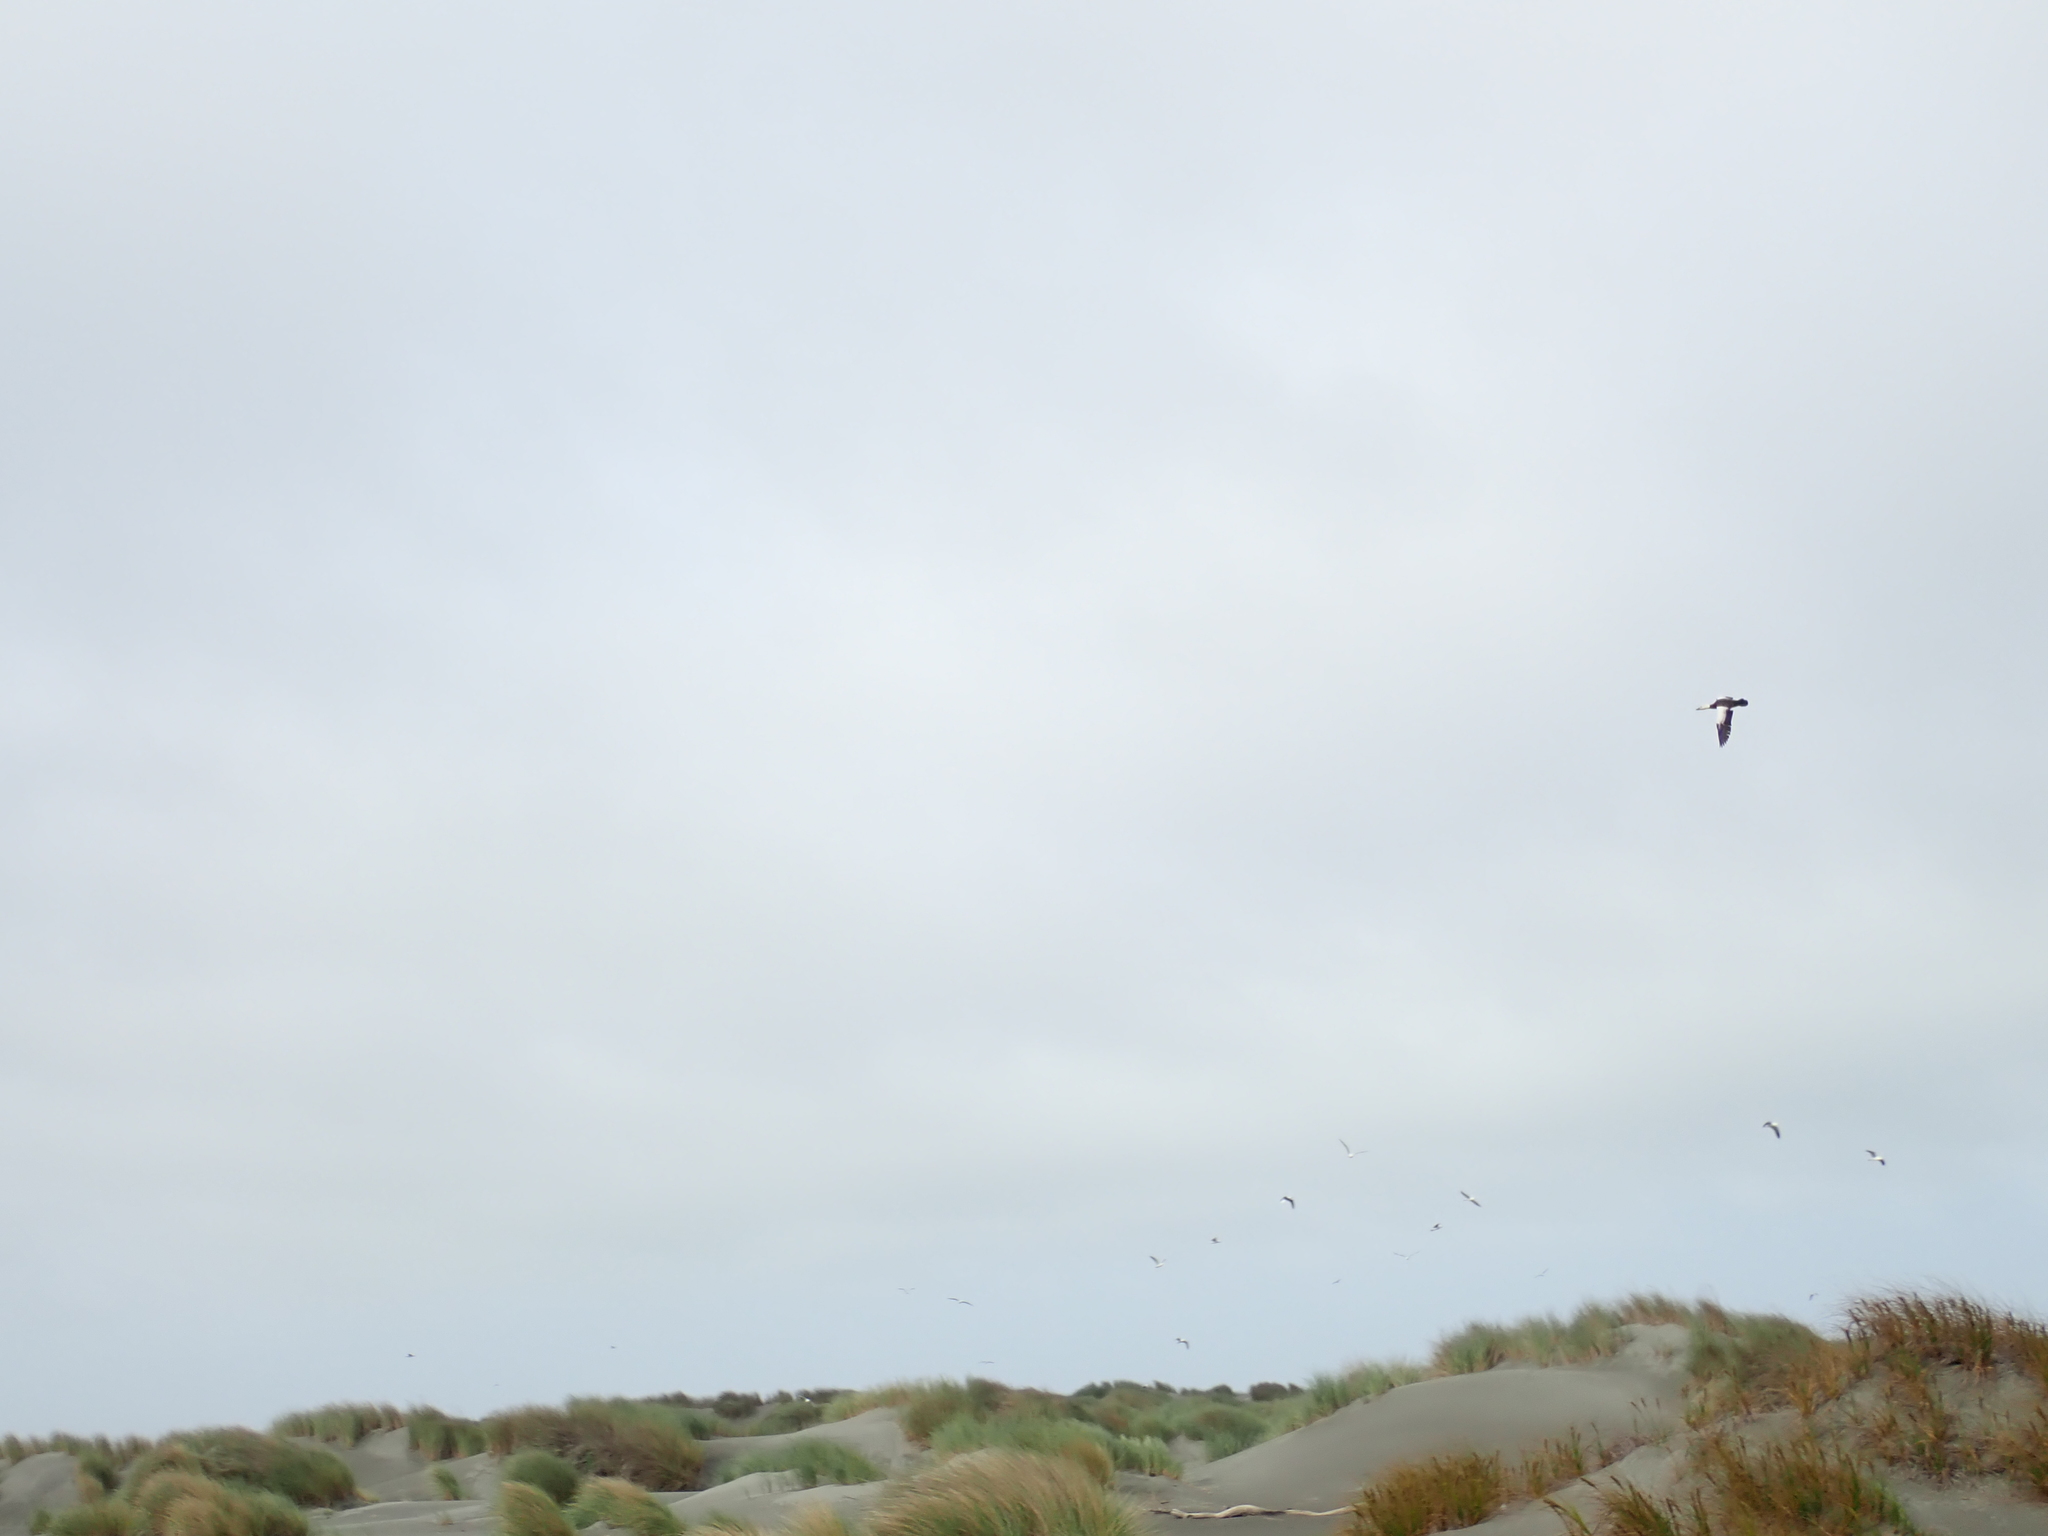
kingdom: Animalia
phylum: Chordata
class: Aves
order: Anseriformes
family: Anatidae
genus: Tadorna
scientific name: Tadorna variegata
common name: Paradise shelduck
